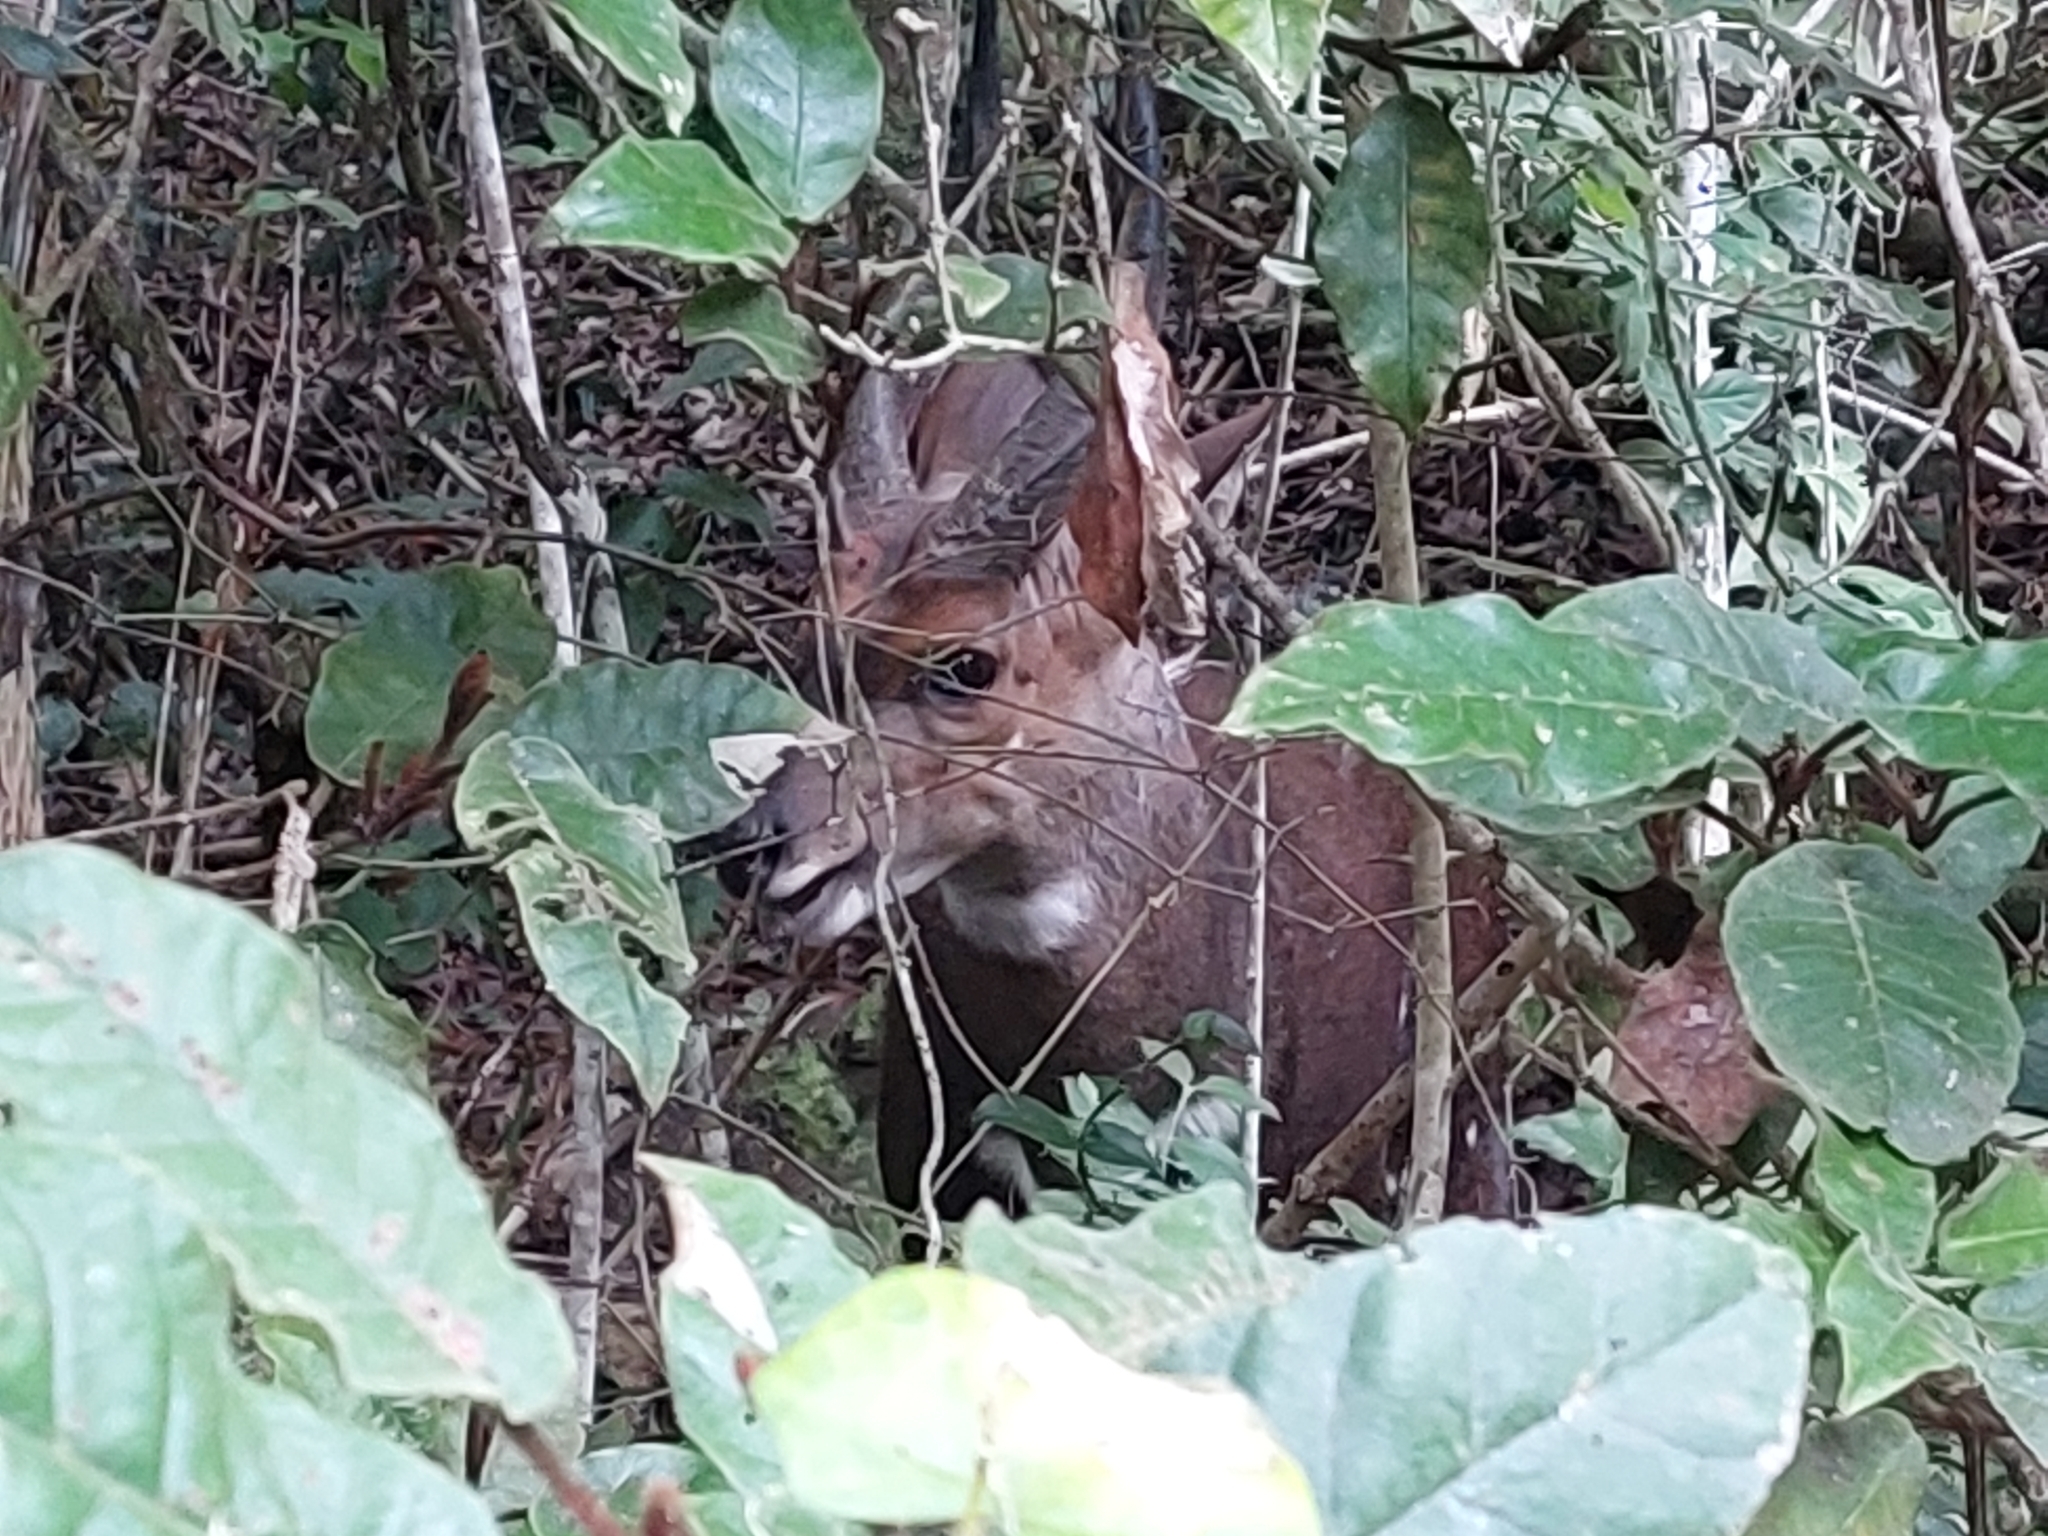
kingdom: Animalia
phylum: Chordata
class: Mammalia
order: Artiodactyla
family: Bovidae
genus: Tragelaphus
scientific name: Tragelaphus scriptus
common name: Bushbuck
